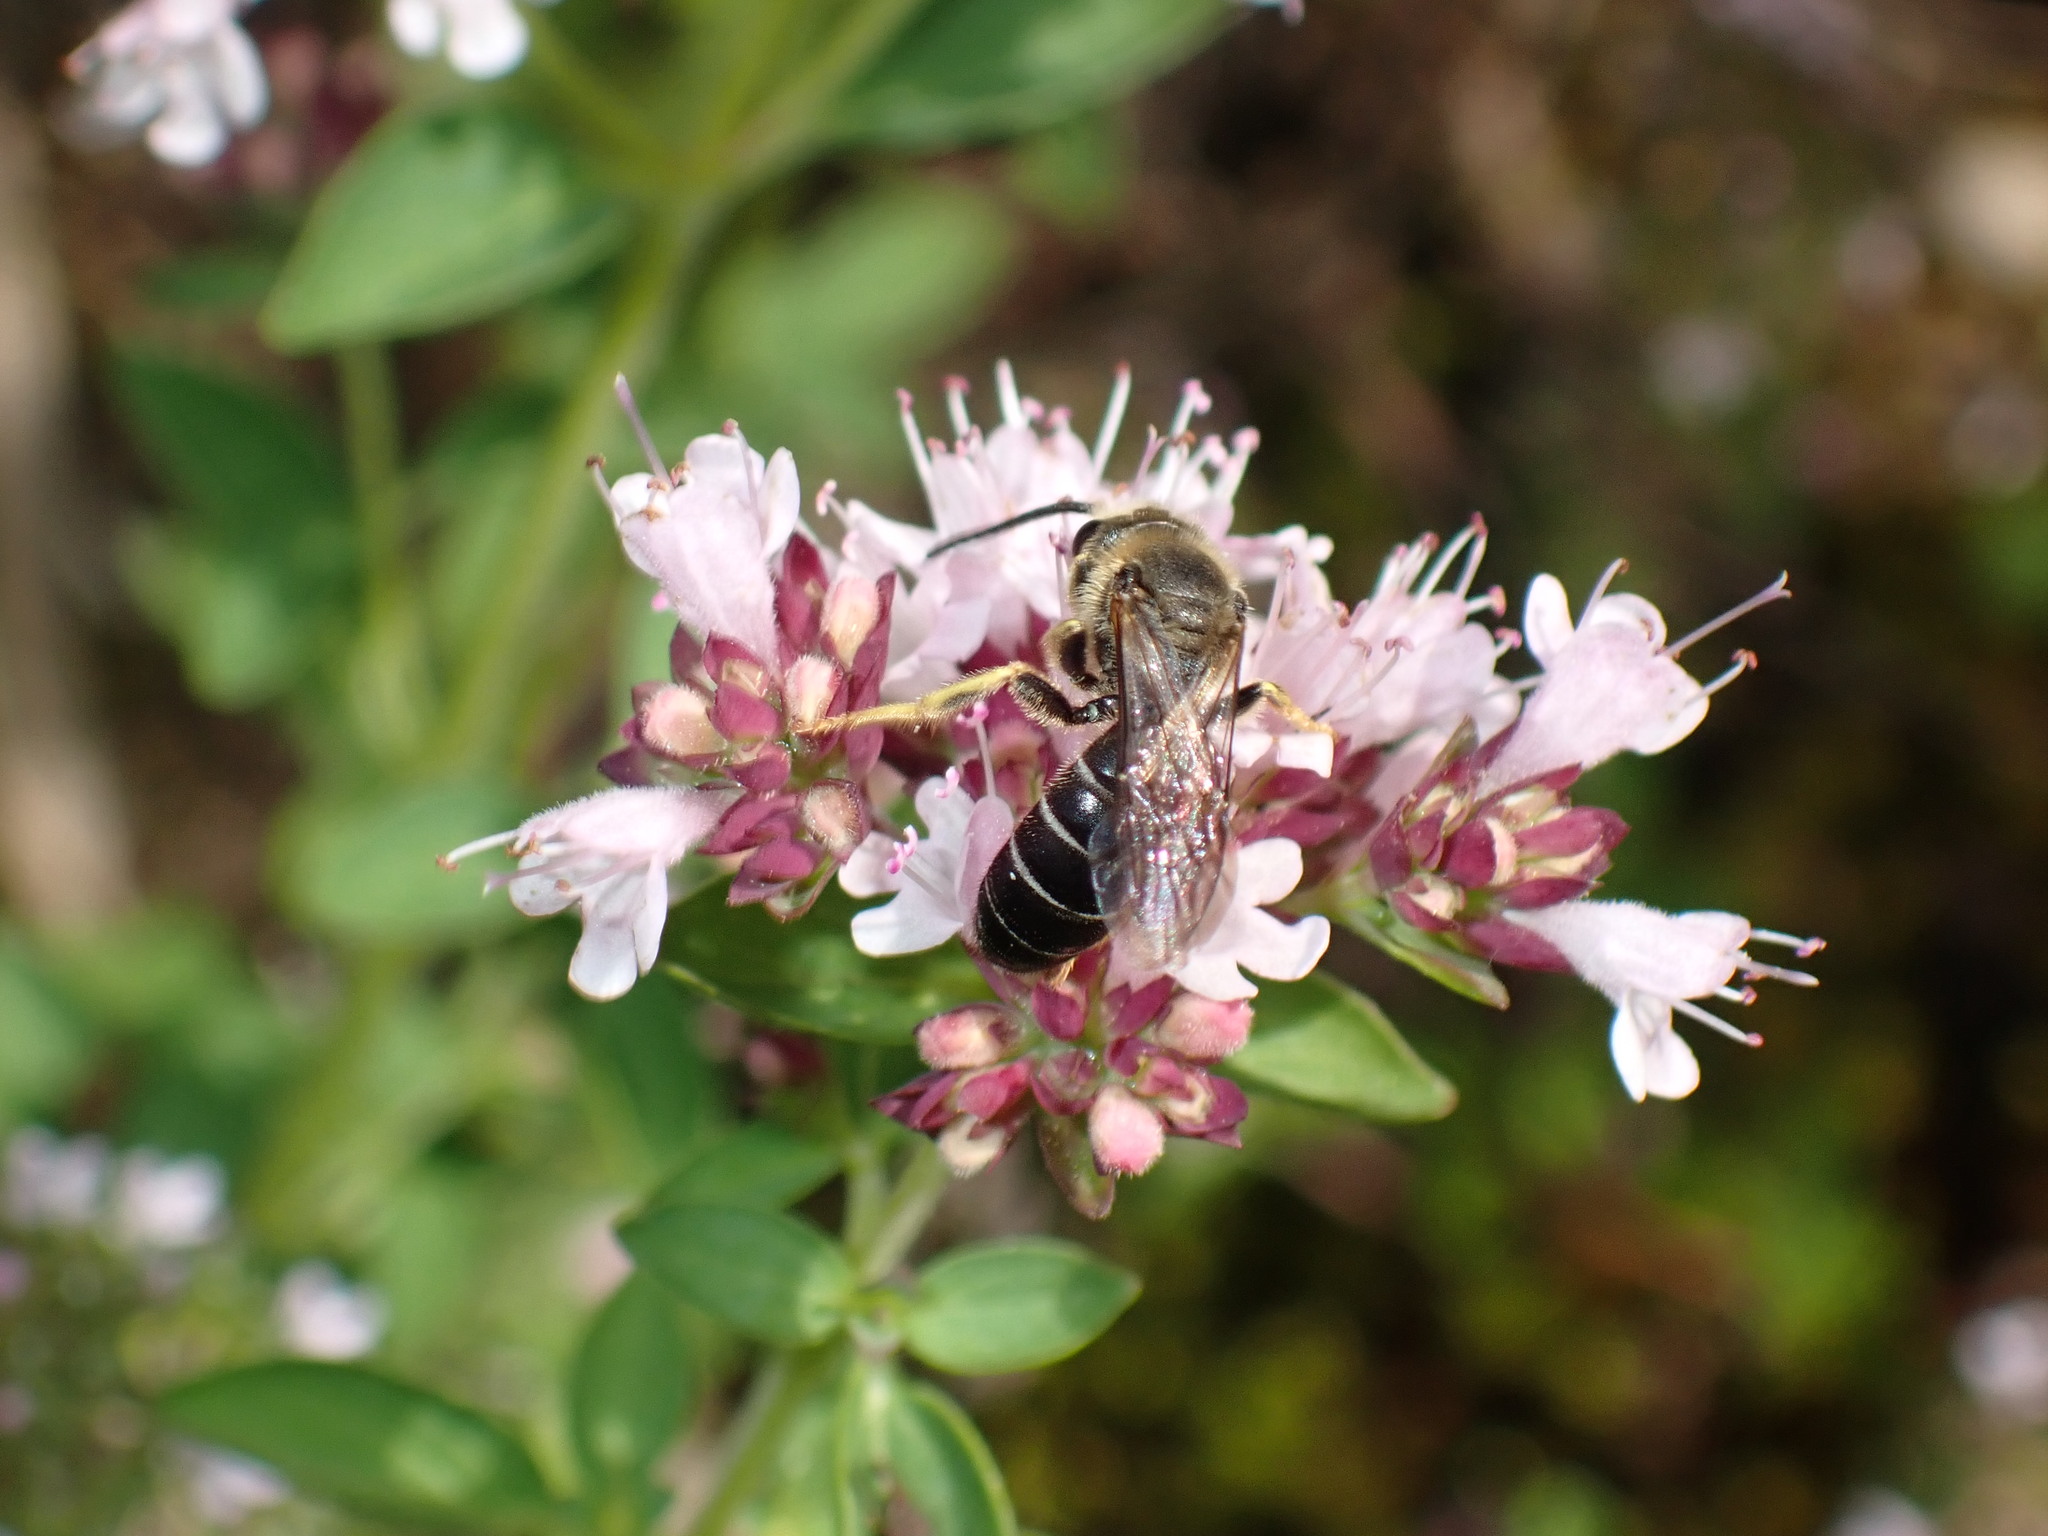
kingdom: Animalia
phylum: Arthropoda
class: Insecta
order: Hymenoptera
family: Halictidae
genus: Halictus
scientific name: Halictus rubicundus
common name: Orange-legged furrow bee
